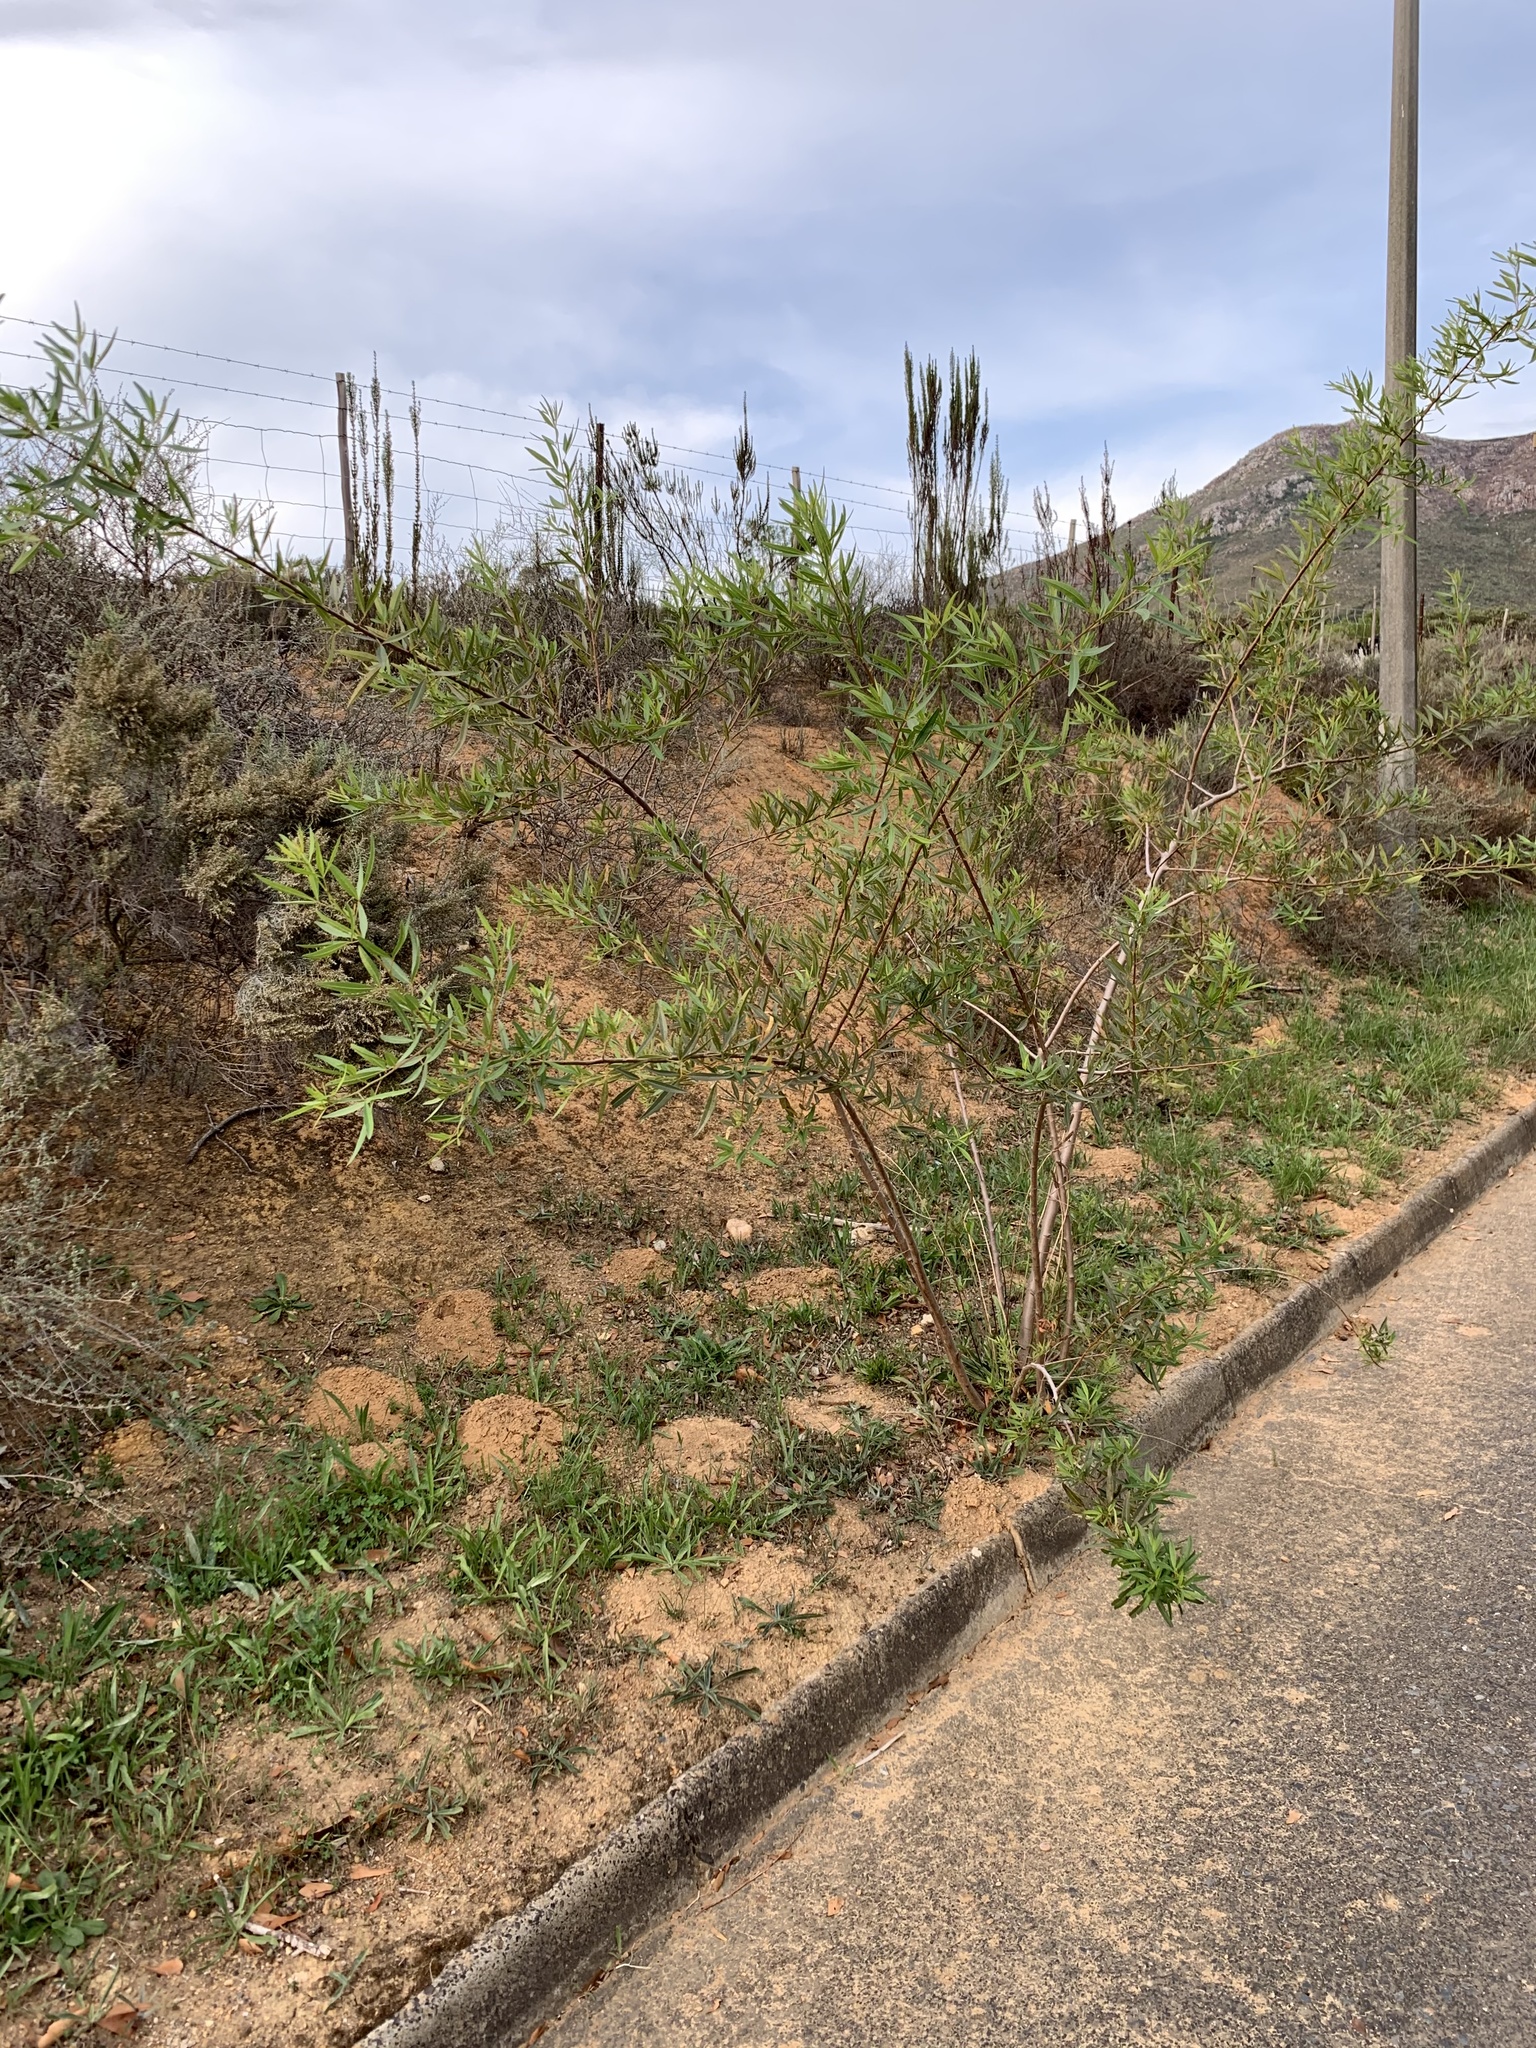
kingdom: Plantae
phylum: Tracheophyta
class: Magnoliopsida
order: Sapindales
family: Anacardiaceae
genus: Searsia
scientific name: Searsia pendulina
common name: White karee
